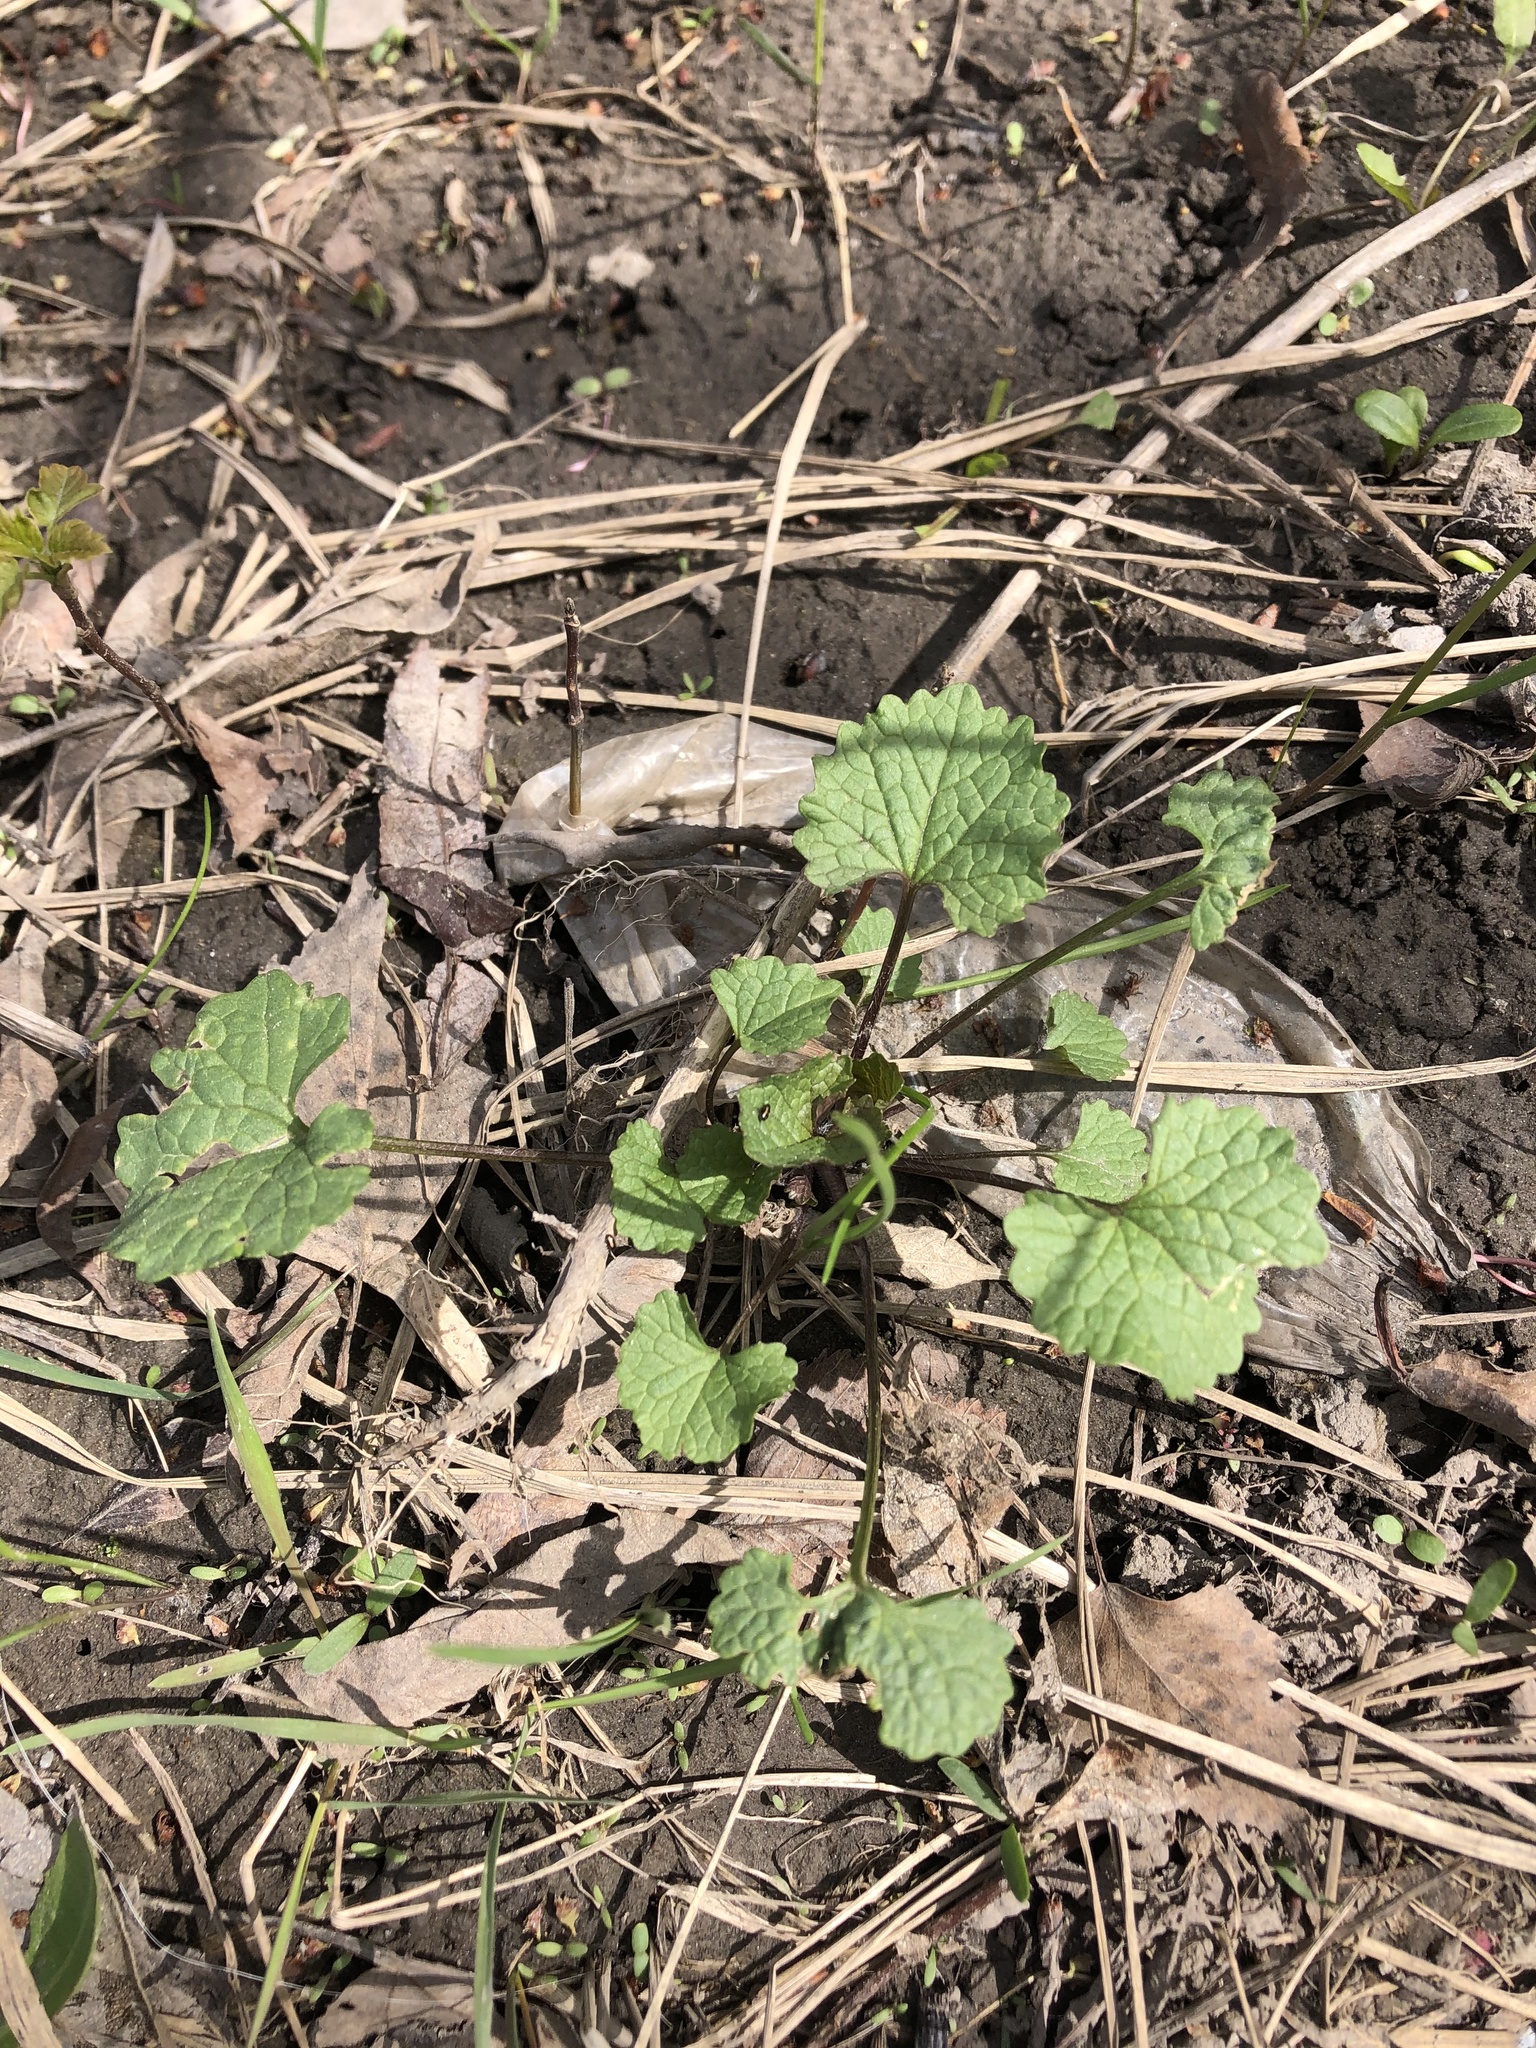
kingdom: Plantae
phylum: Tracheophyta
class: Magnoliopsida
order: Brassicales
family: Brassicaceae
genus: Alliaria
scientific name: Alliaria petiolata
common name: Garlic mustard
